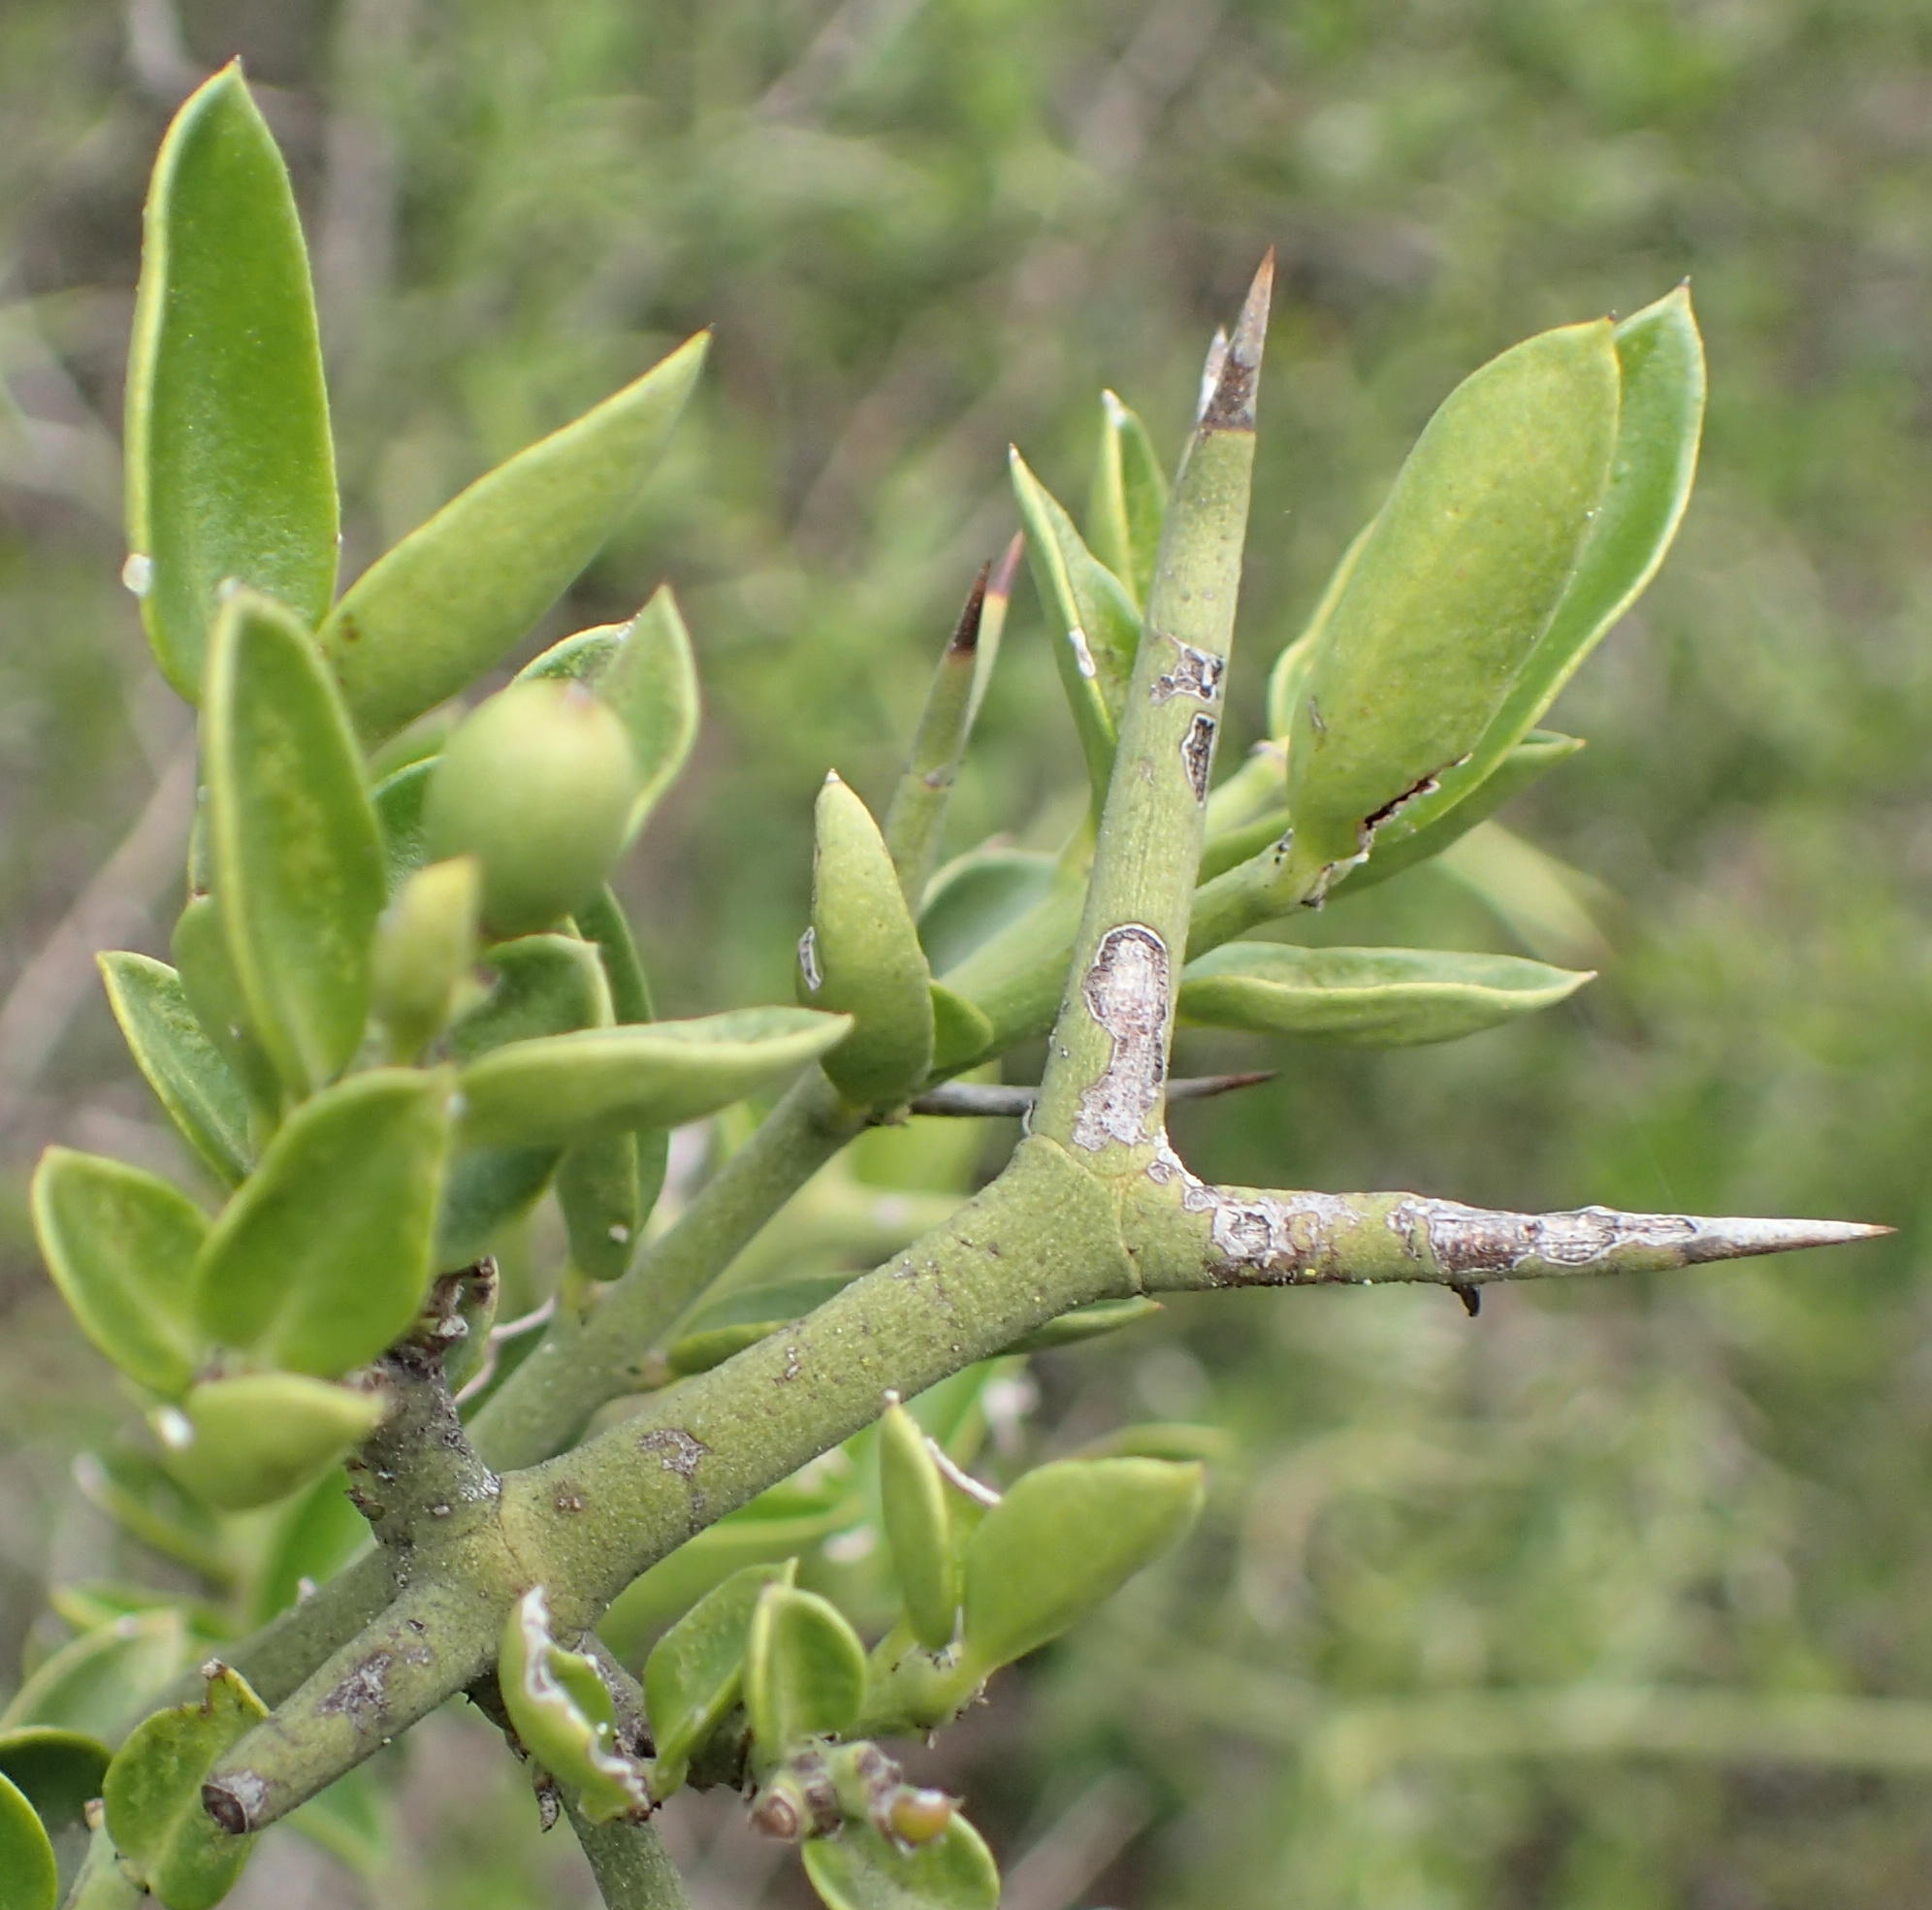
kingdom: Plantae
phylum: Tracheophyta
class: Magnoliopsida
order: Gentianales
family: Apocynaceae
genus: Carissa
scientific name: Carissa haematocarpa
